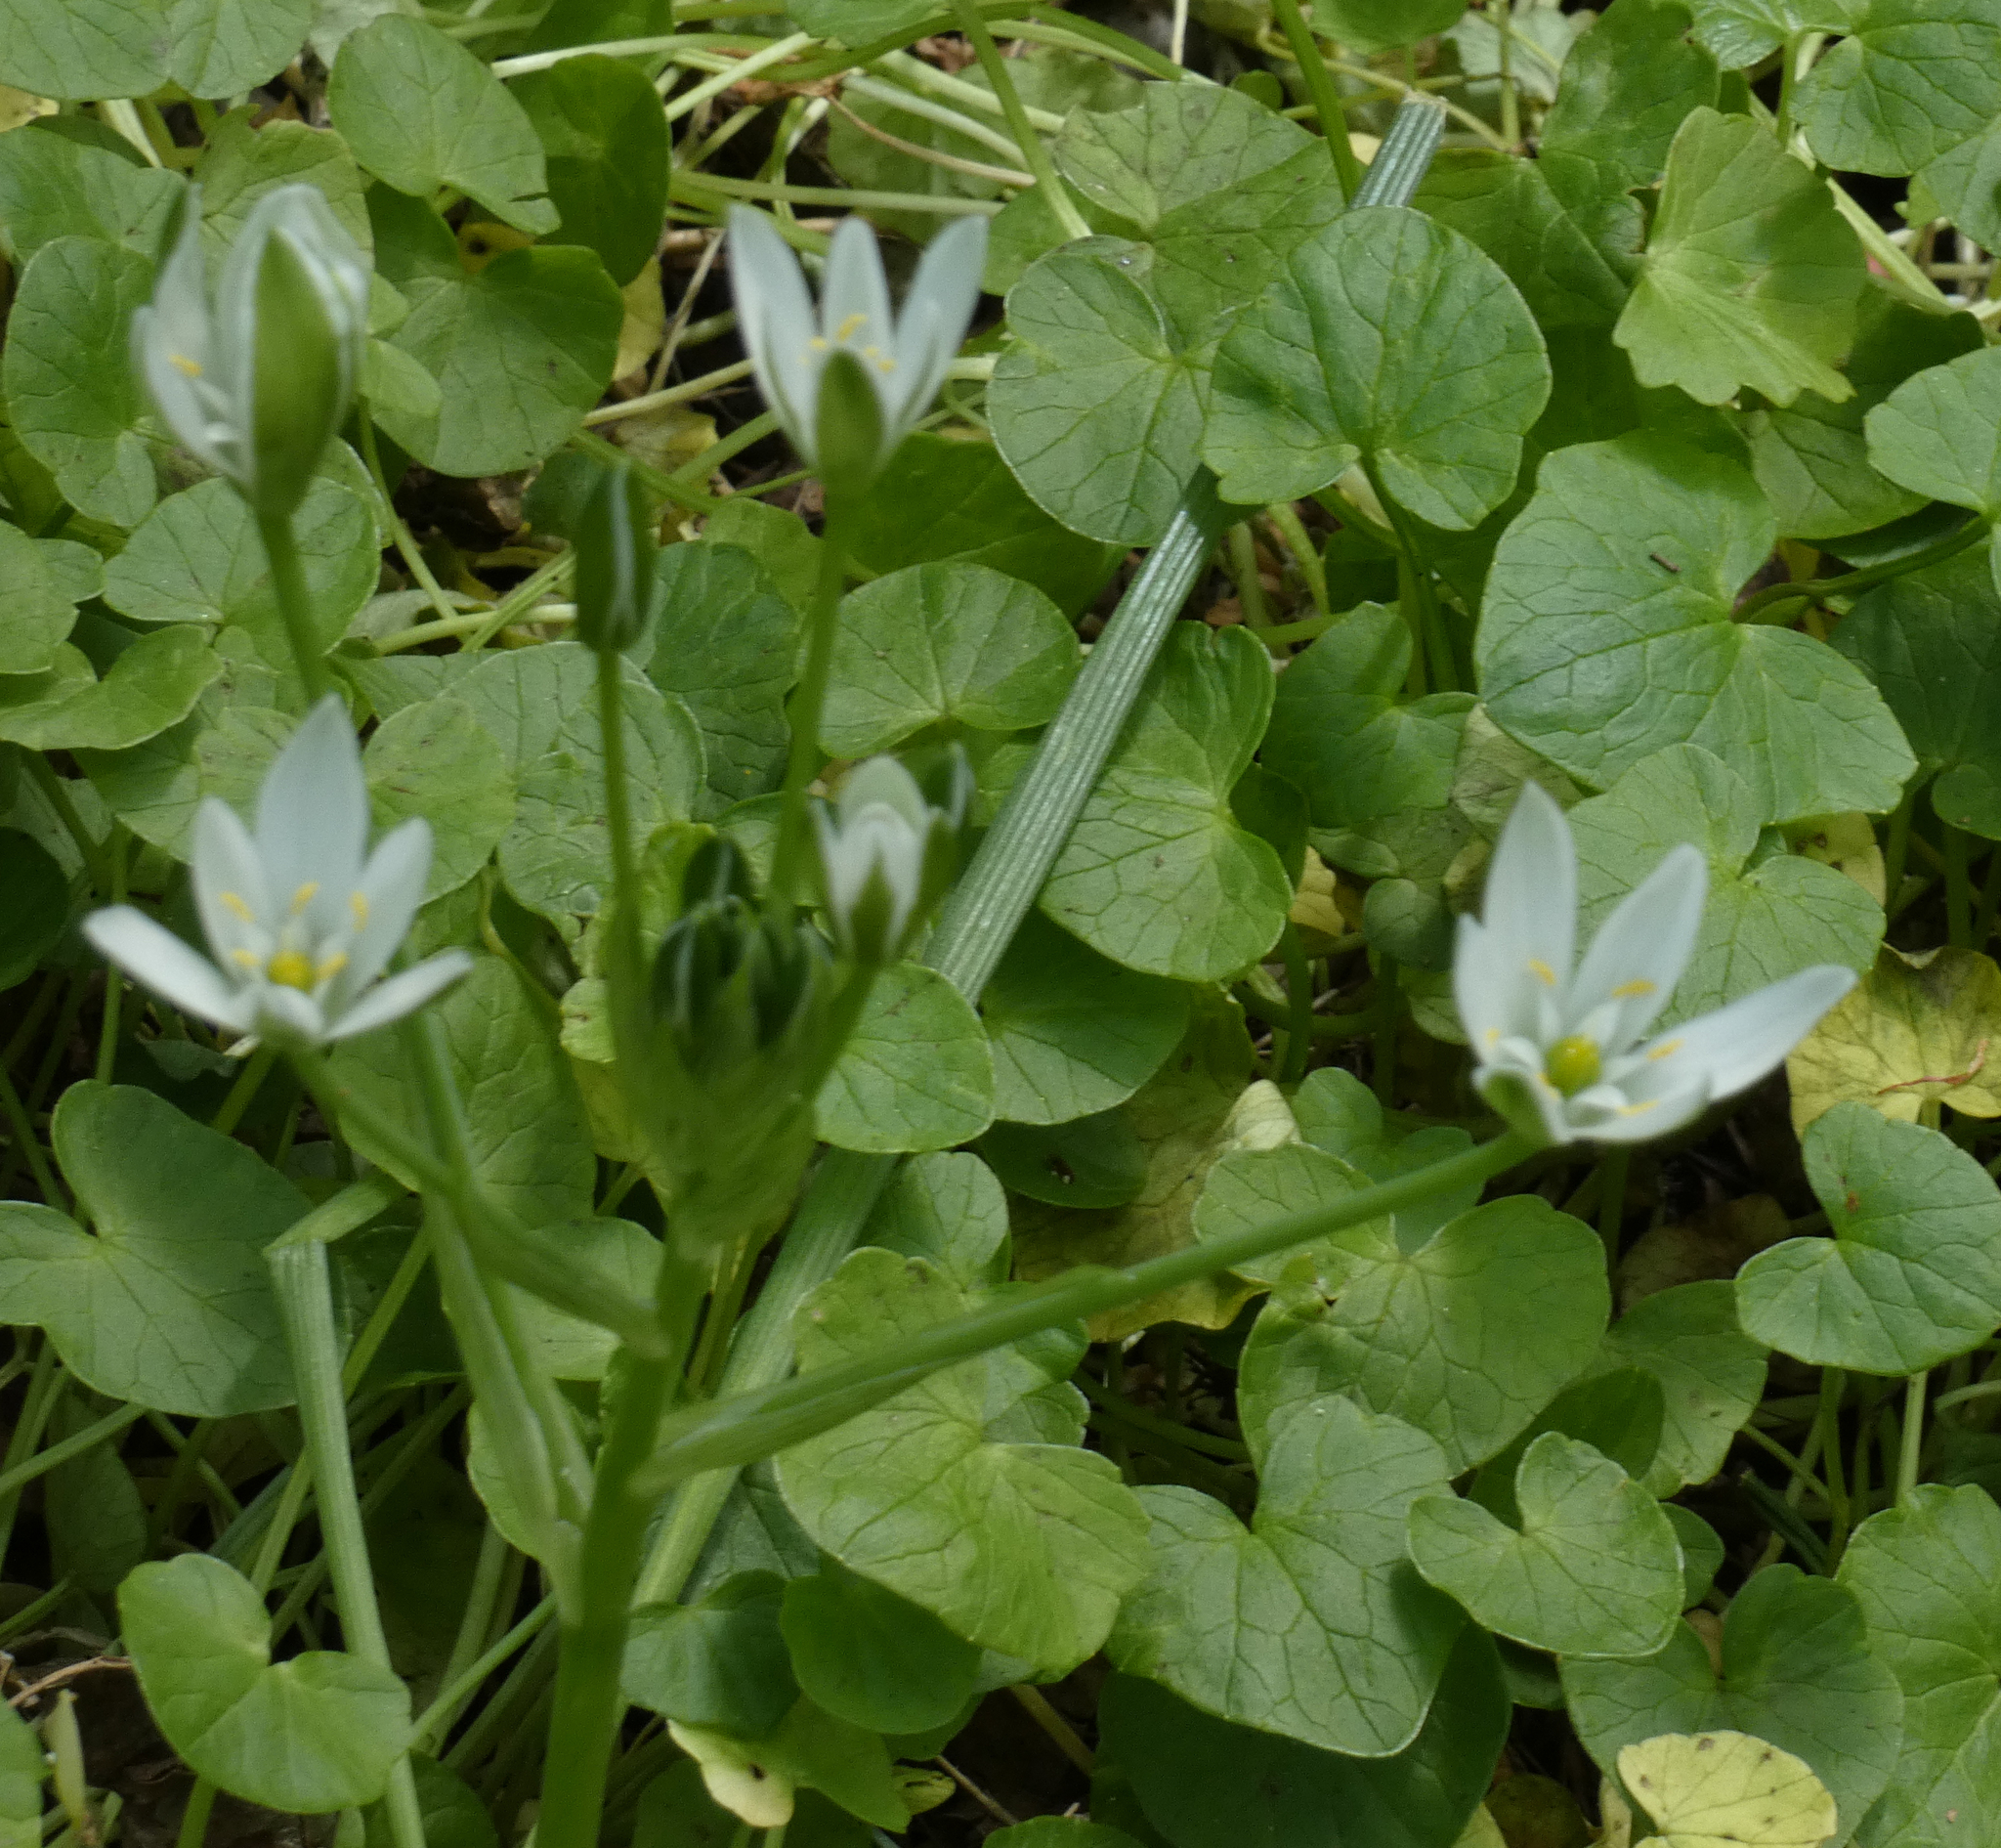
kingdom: Plantae
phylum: Tracheophyta
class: Liliopsida
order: Asparagales
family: Asparagaceae
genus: Ornithogalum
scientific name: Ornithogalum umbellatum
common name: Garden star-of-bethlehem
